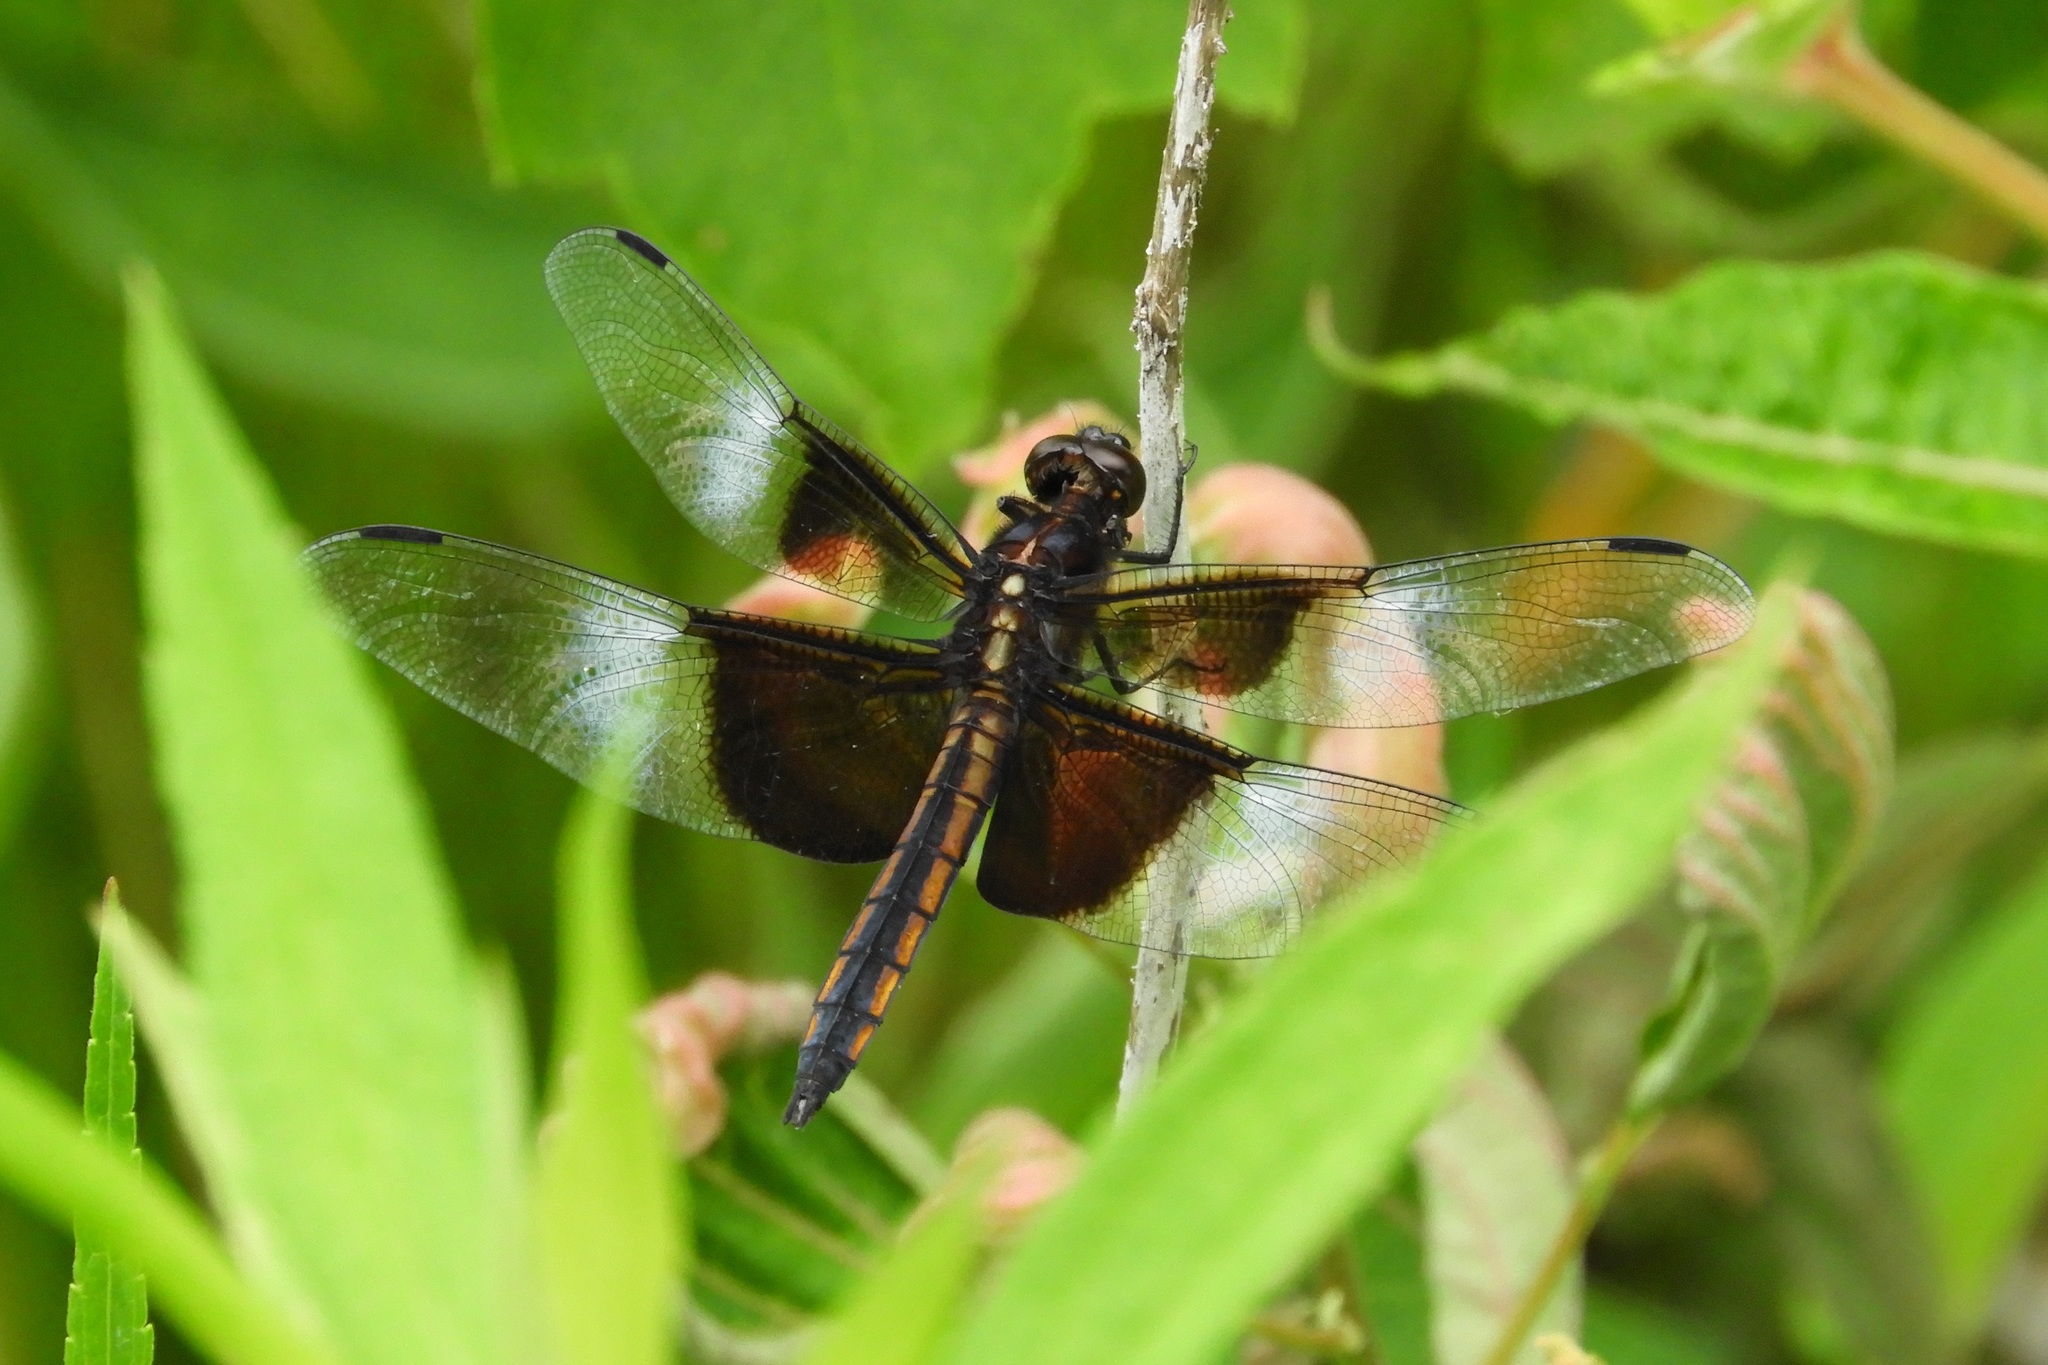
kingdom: Animalia
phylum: Arthropoda
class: Insecta
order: Odonata
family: Libellulidae
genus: Libellula
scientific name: Libellula luctuosa
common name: Widow skimmer
